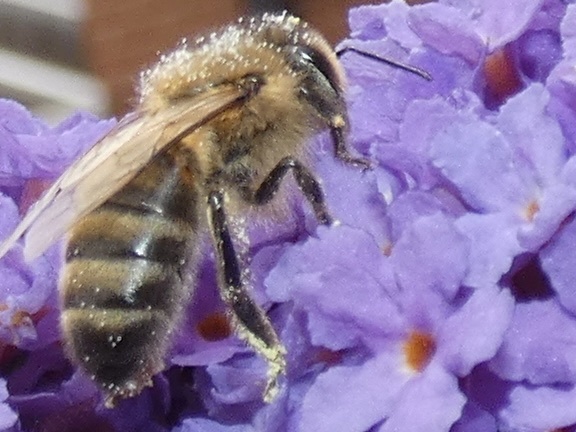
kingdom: Animalia
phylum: Arthropoda
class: Insecta
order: Hymenoptera
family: Apidae
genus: Apis
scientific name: Apis mellifera
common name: Honey bee
